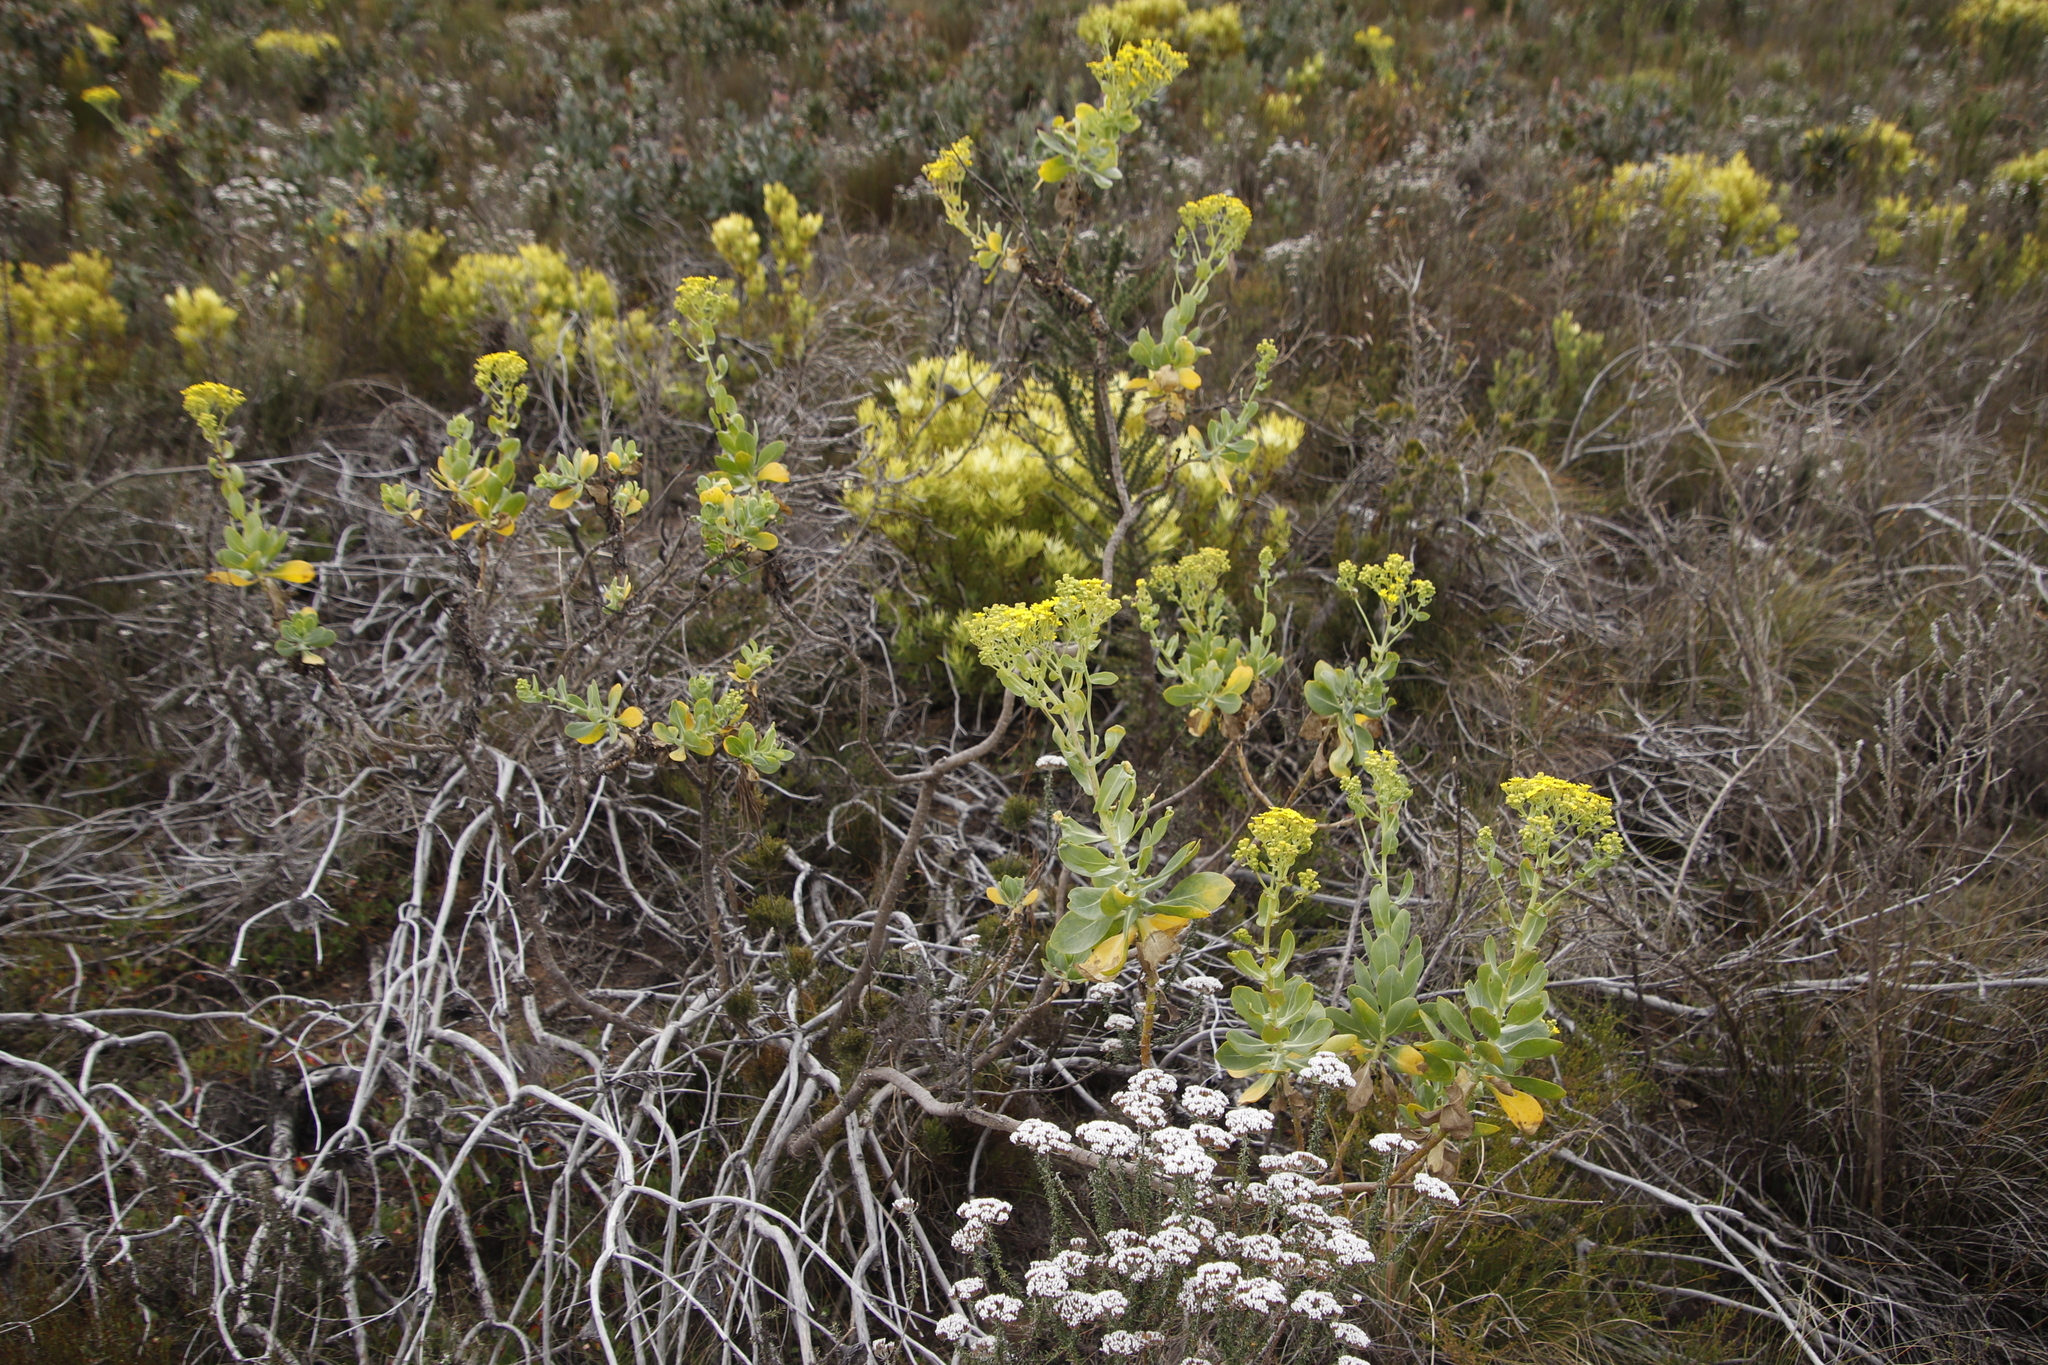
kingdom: Plantae
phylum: Tracheophyta
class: Magnoliopsida
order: Asterales
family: Asteraceae
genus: Othonna
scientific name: Othonna parviflora
